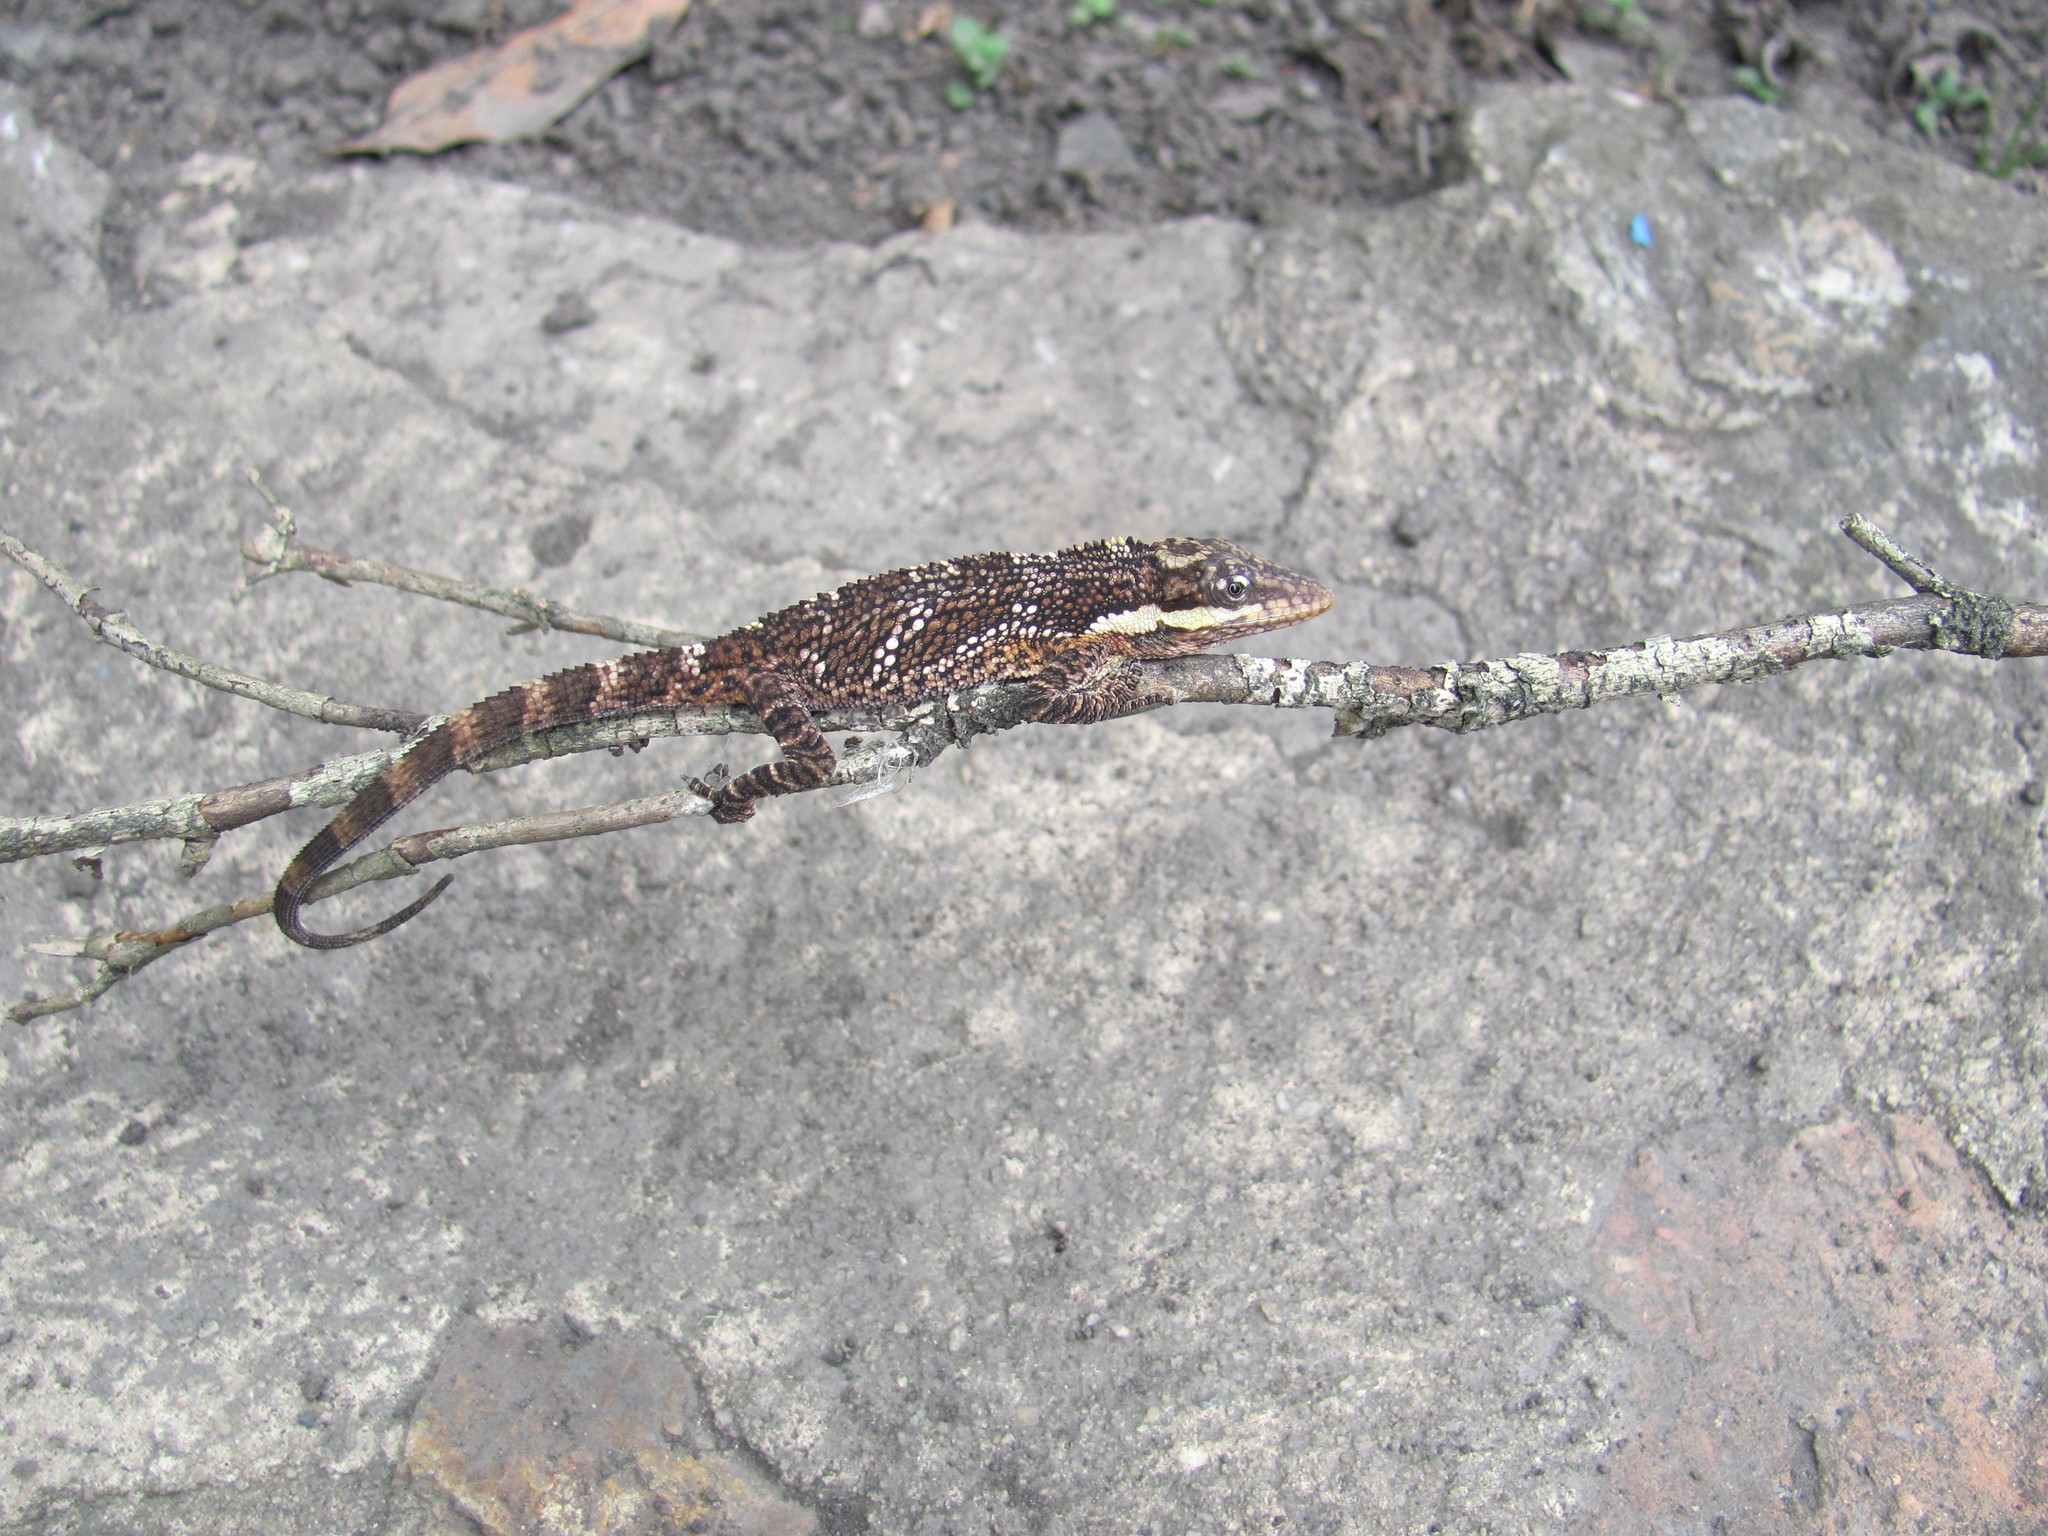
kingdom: Animalia
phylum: Chordata
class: Squamata
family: Dactyloidae
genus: Anolis
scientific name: Anolis heterodermus
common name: Flat andes anole
